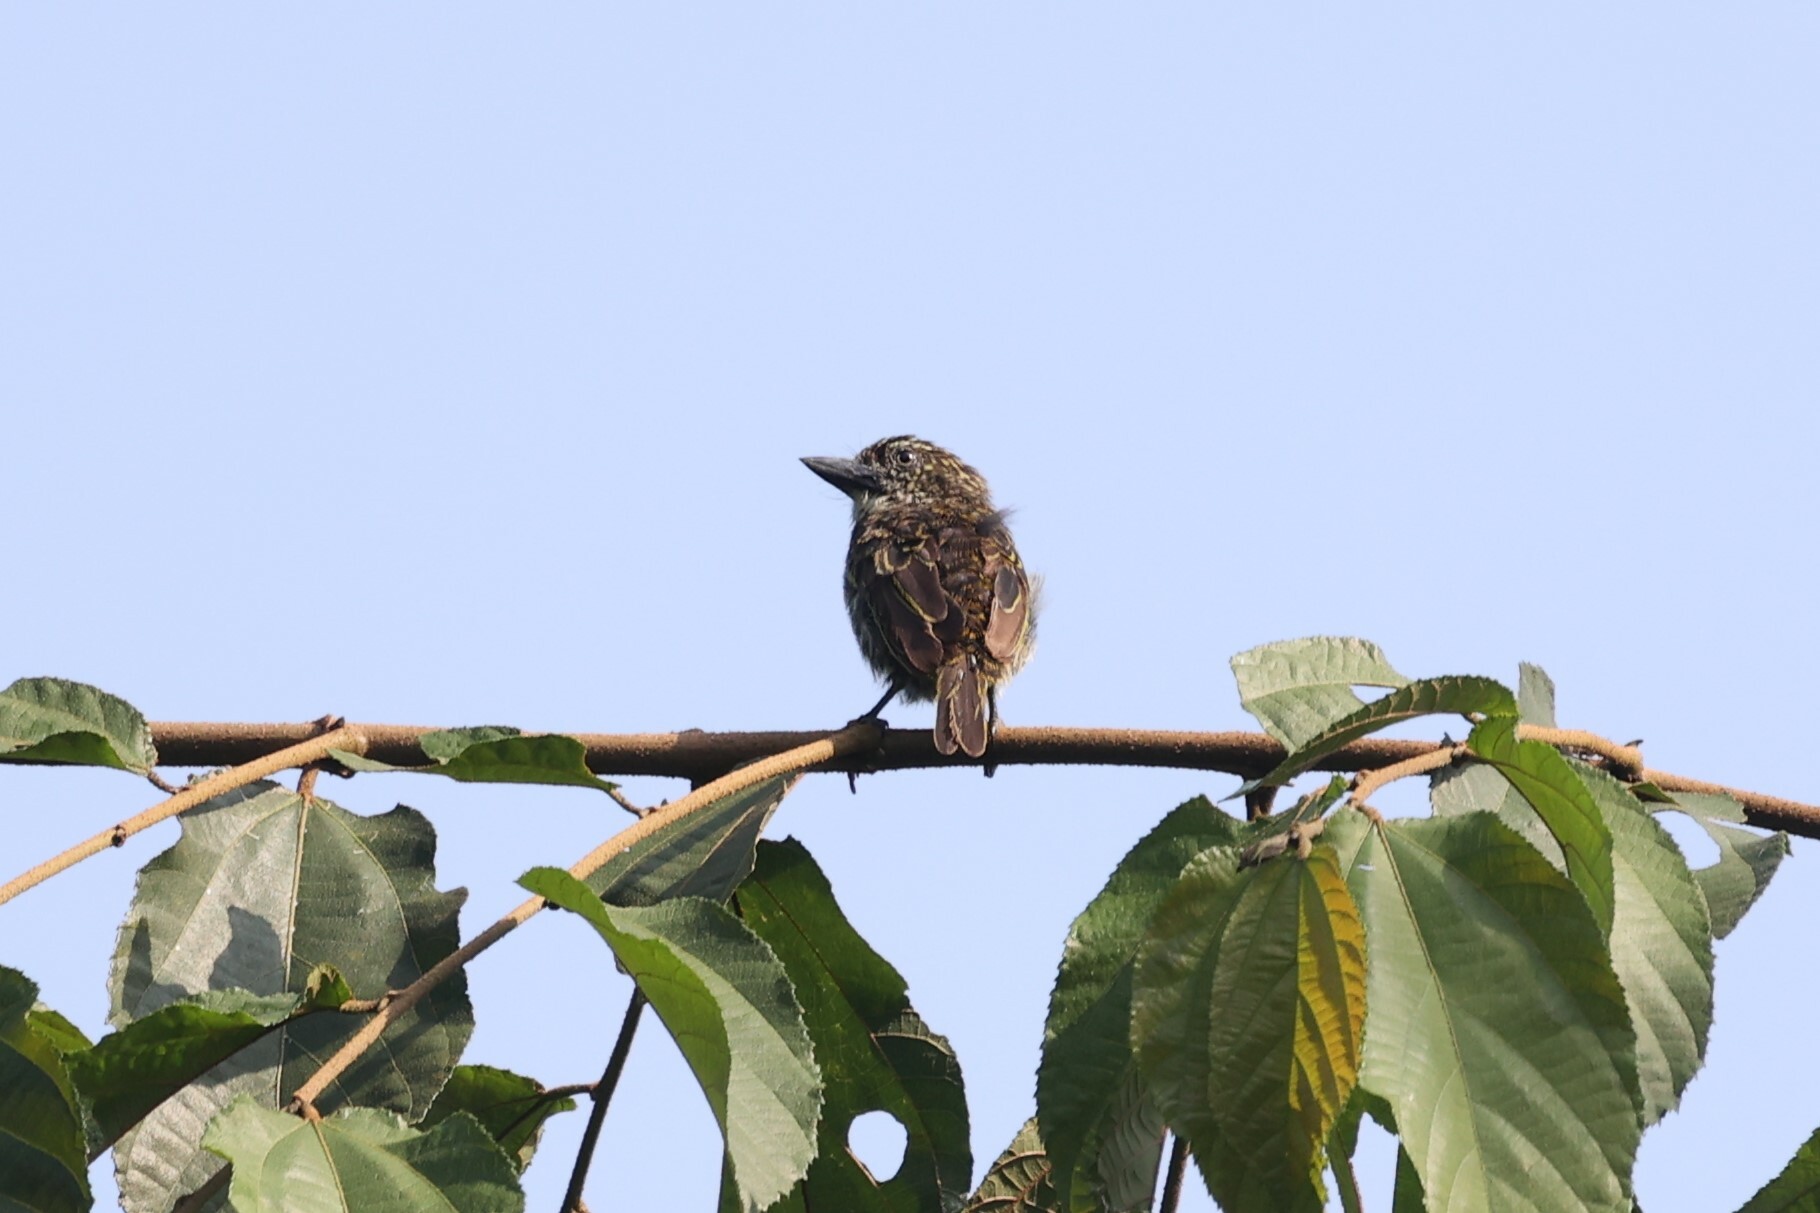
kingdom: Animalia
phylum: Chordata
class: Aves
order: Piciformes
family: Lybiidae
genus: Pogoniulus
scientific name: Pogoniulus scolopaceus
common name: Speckled tinkerbird
